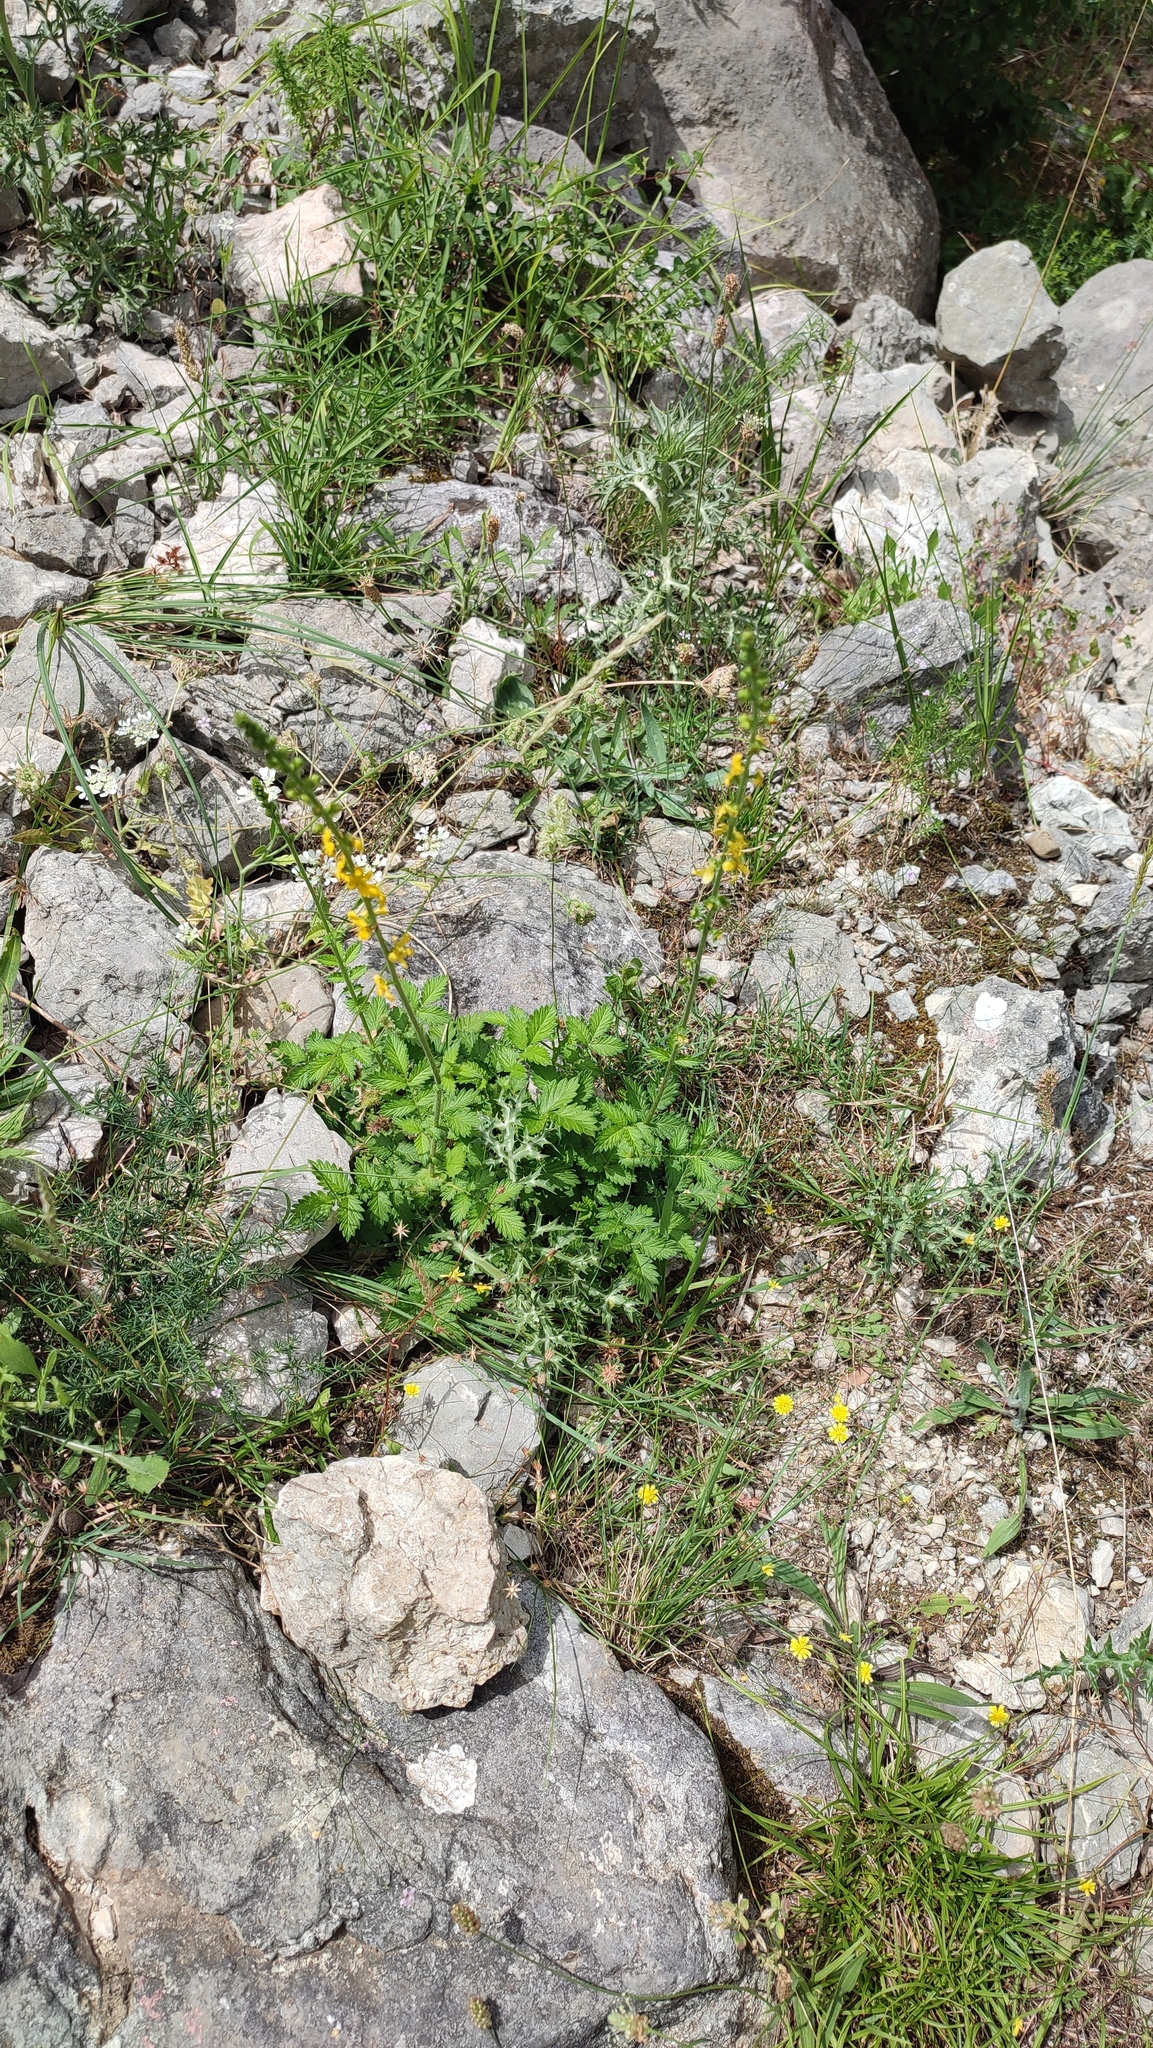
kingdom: Plantae
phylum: Tracheophyta
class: Magnoliopsida
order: Rosales
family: Rosaceae
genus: Agrimonia
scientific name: Agrimonia eupatoria
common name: Agrimony
